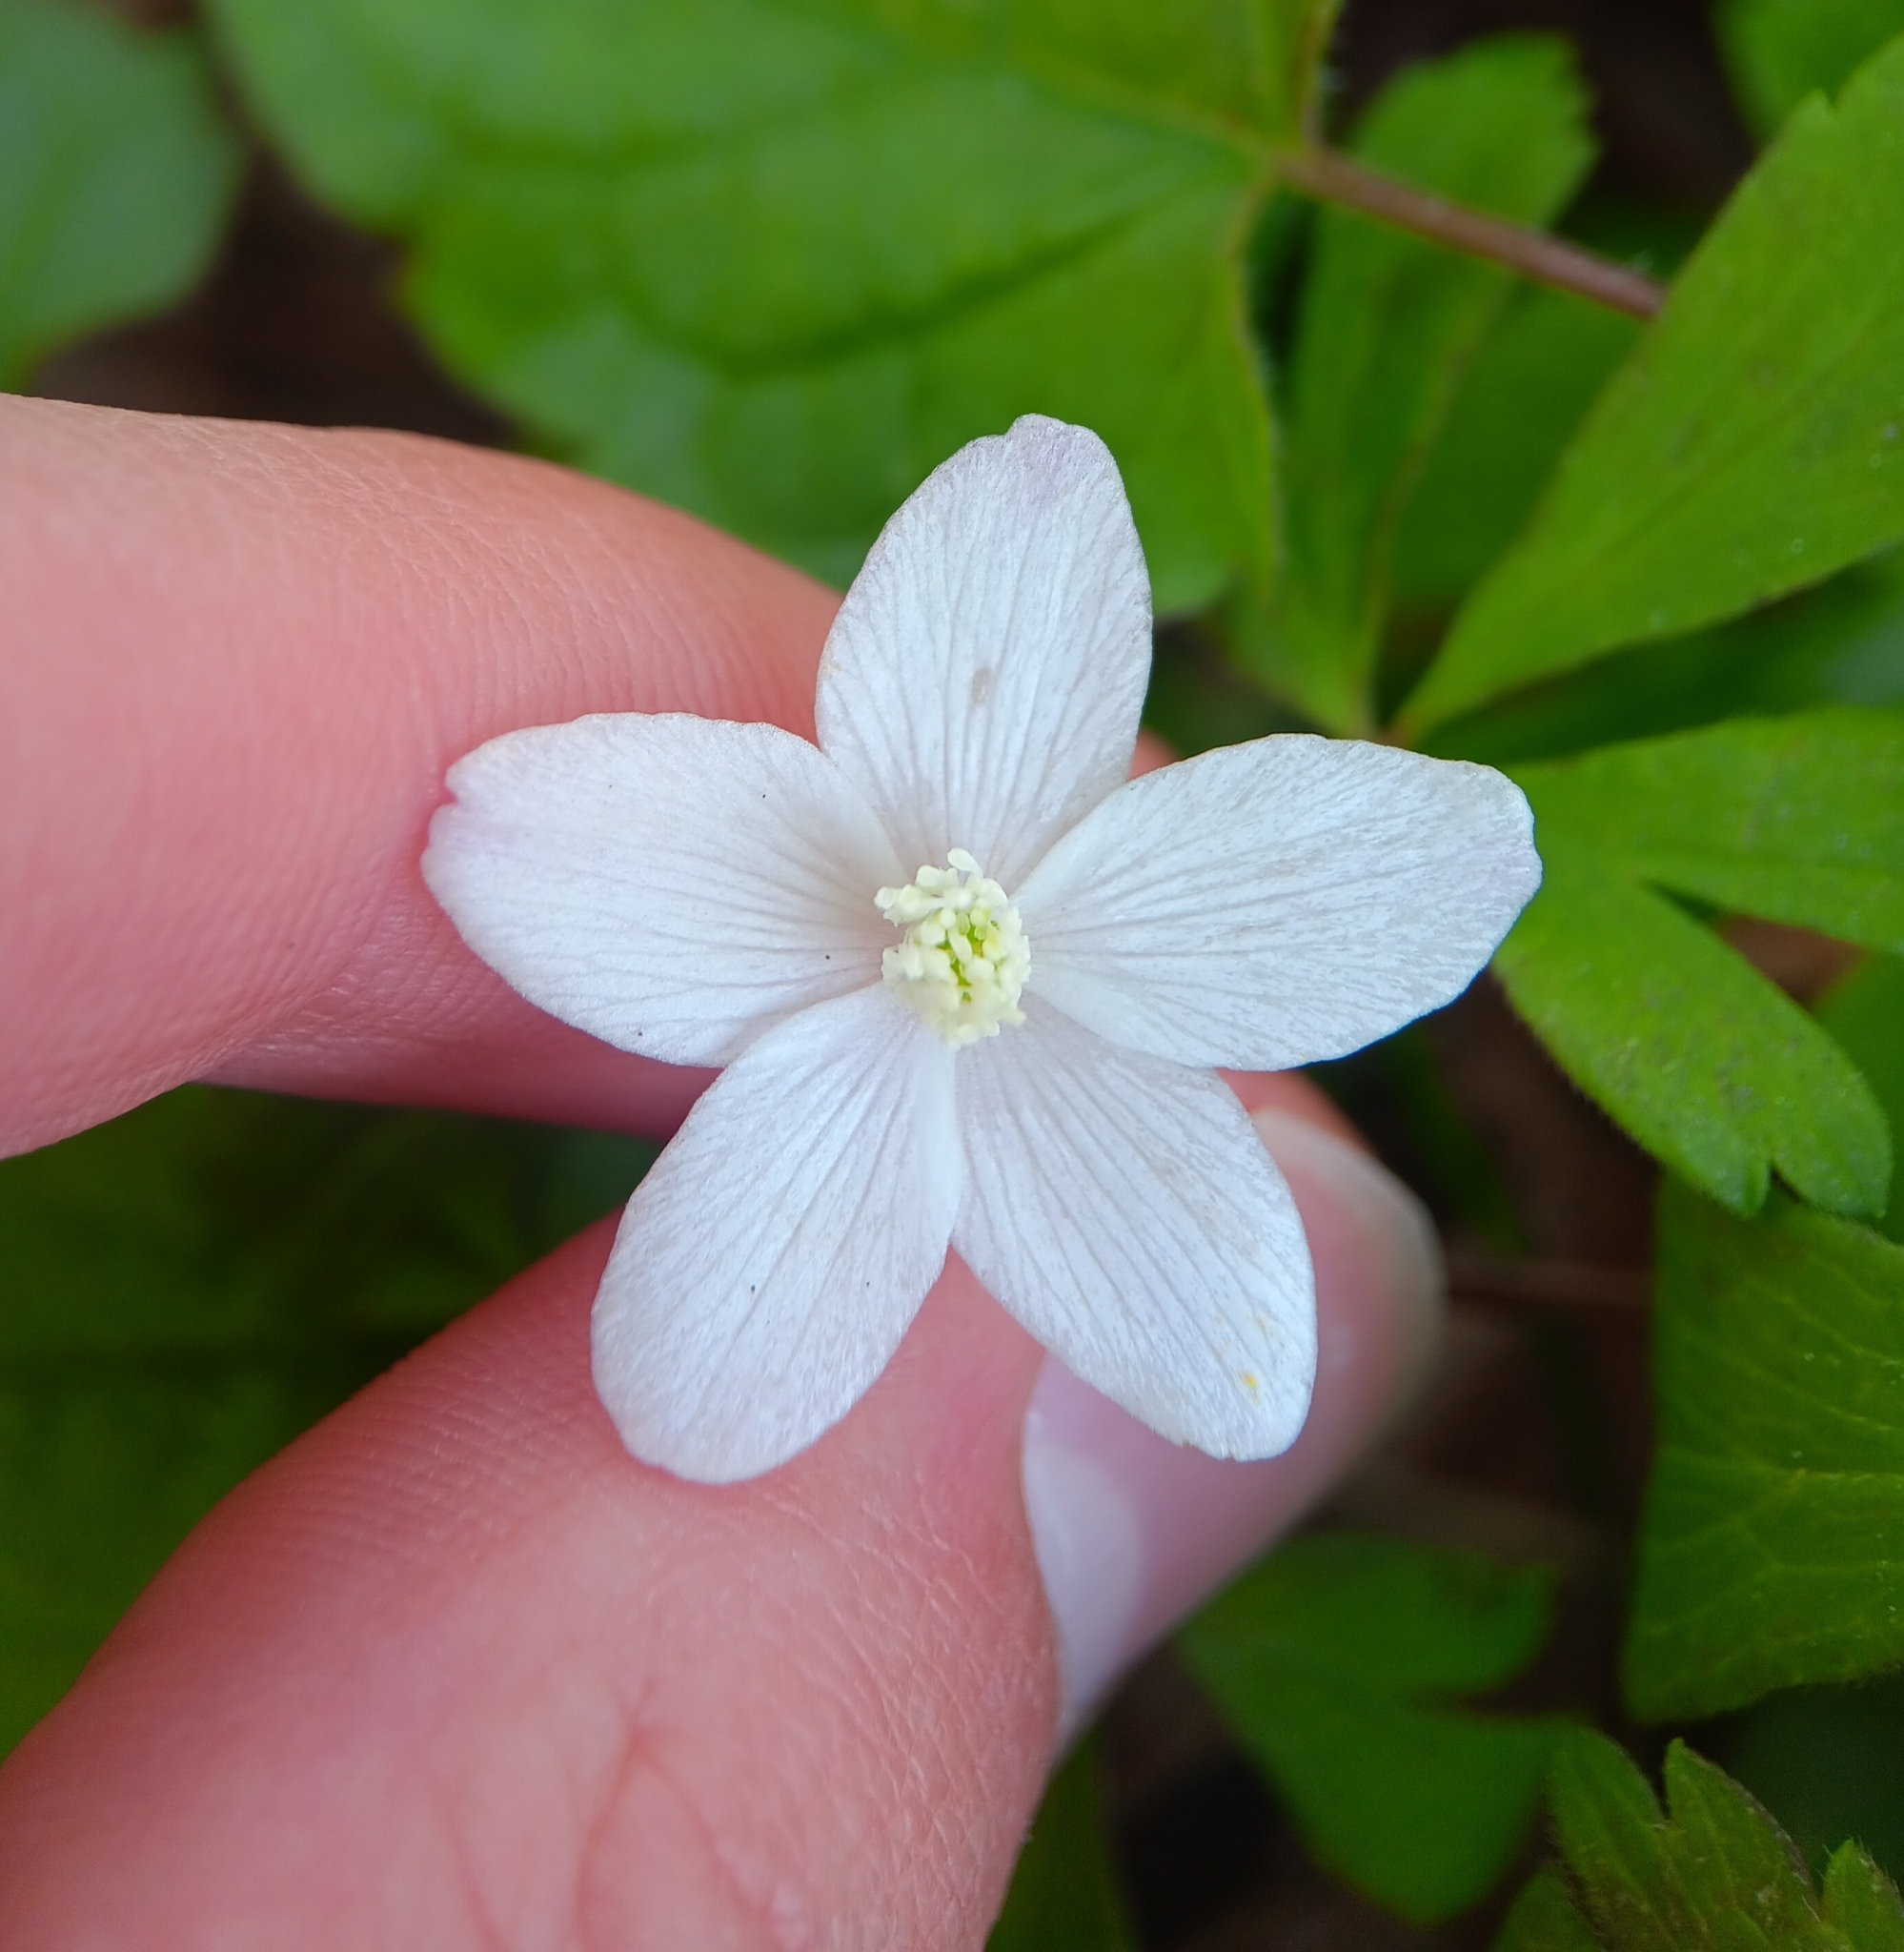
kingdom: Plantae
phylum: Tracheophyta
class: Magnoliopsida
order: Ranunculales
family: Ranunculaceae
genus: Anemone
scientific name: Anemone quinquefolia
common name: Wood anemone
